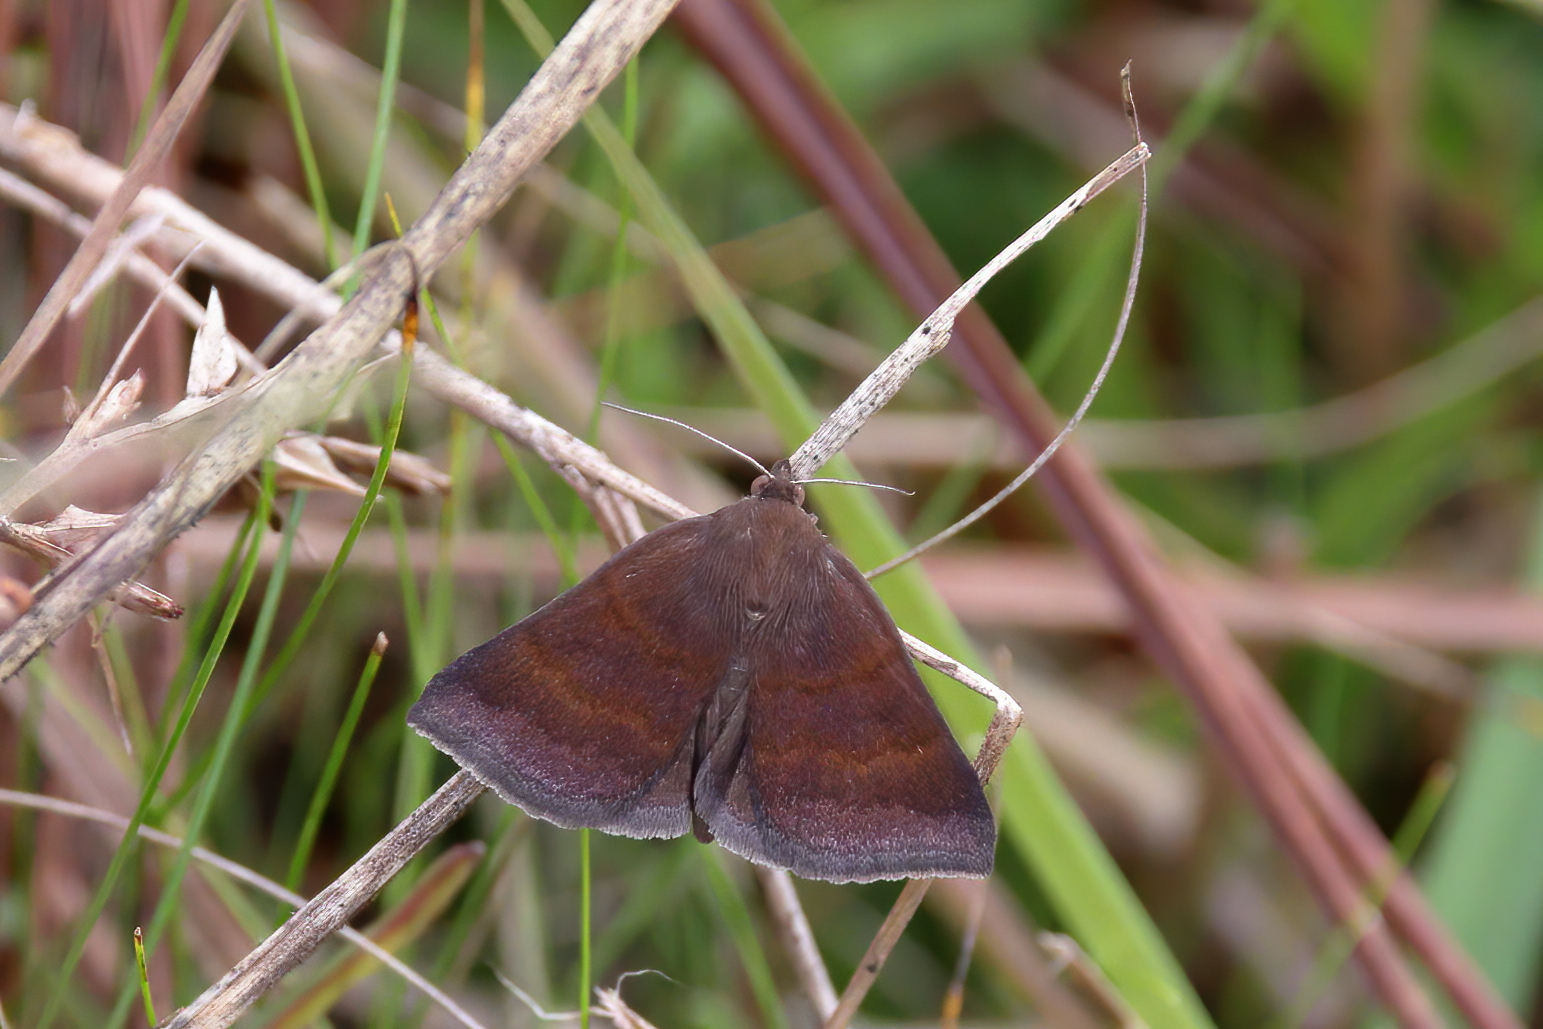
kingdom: Animalia
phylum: Arthropoda
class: Insecta
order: Lepidoptera
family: Erebidae
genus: Argyrostrotis
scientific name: Argyrostrotis deleta
